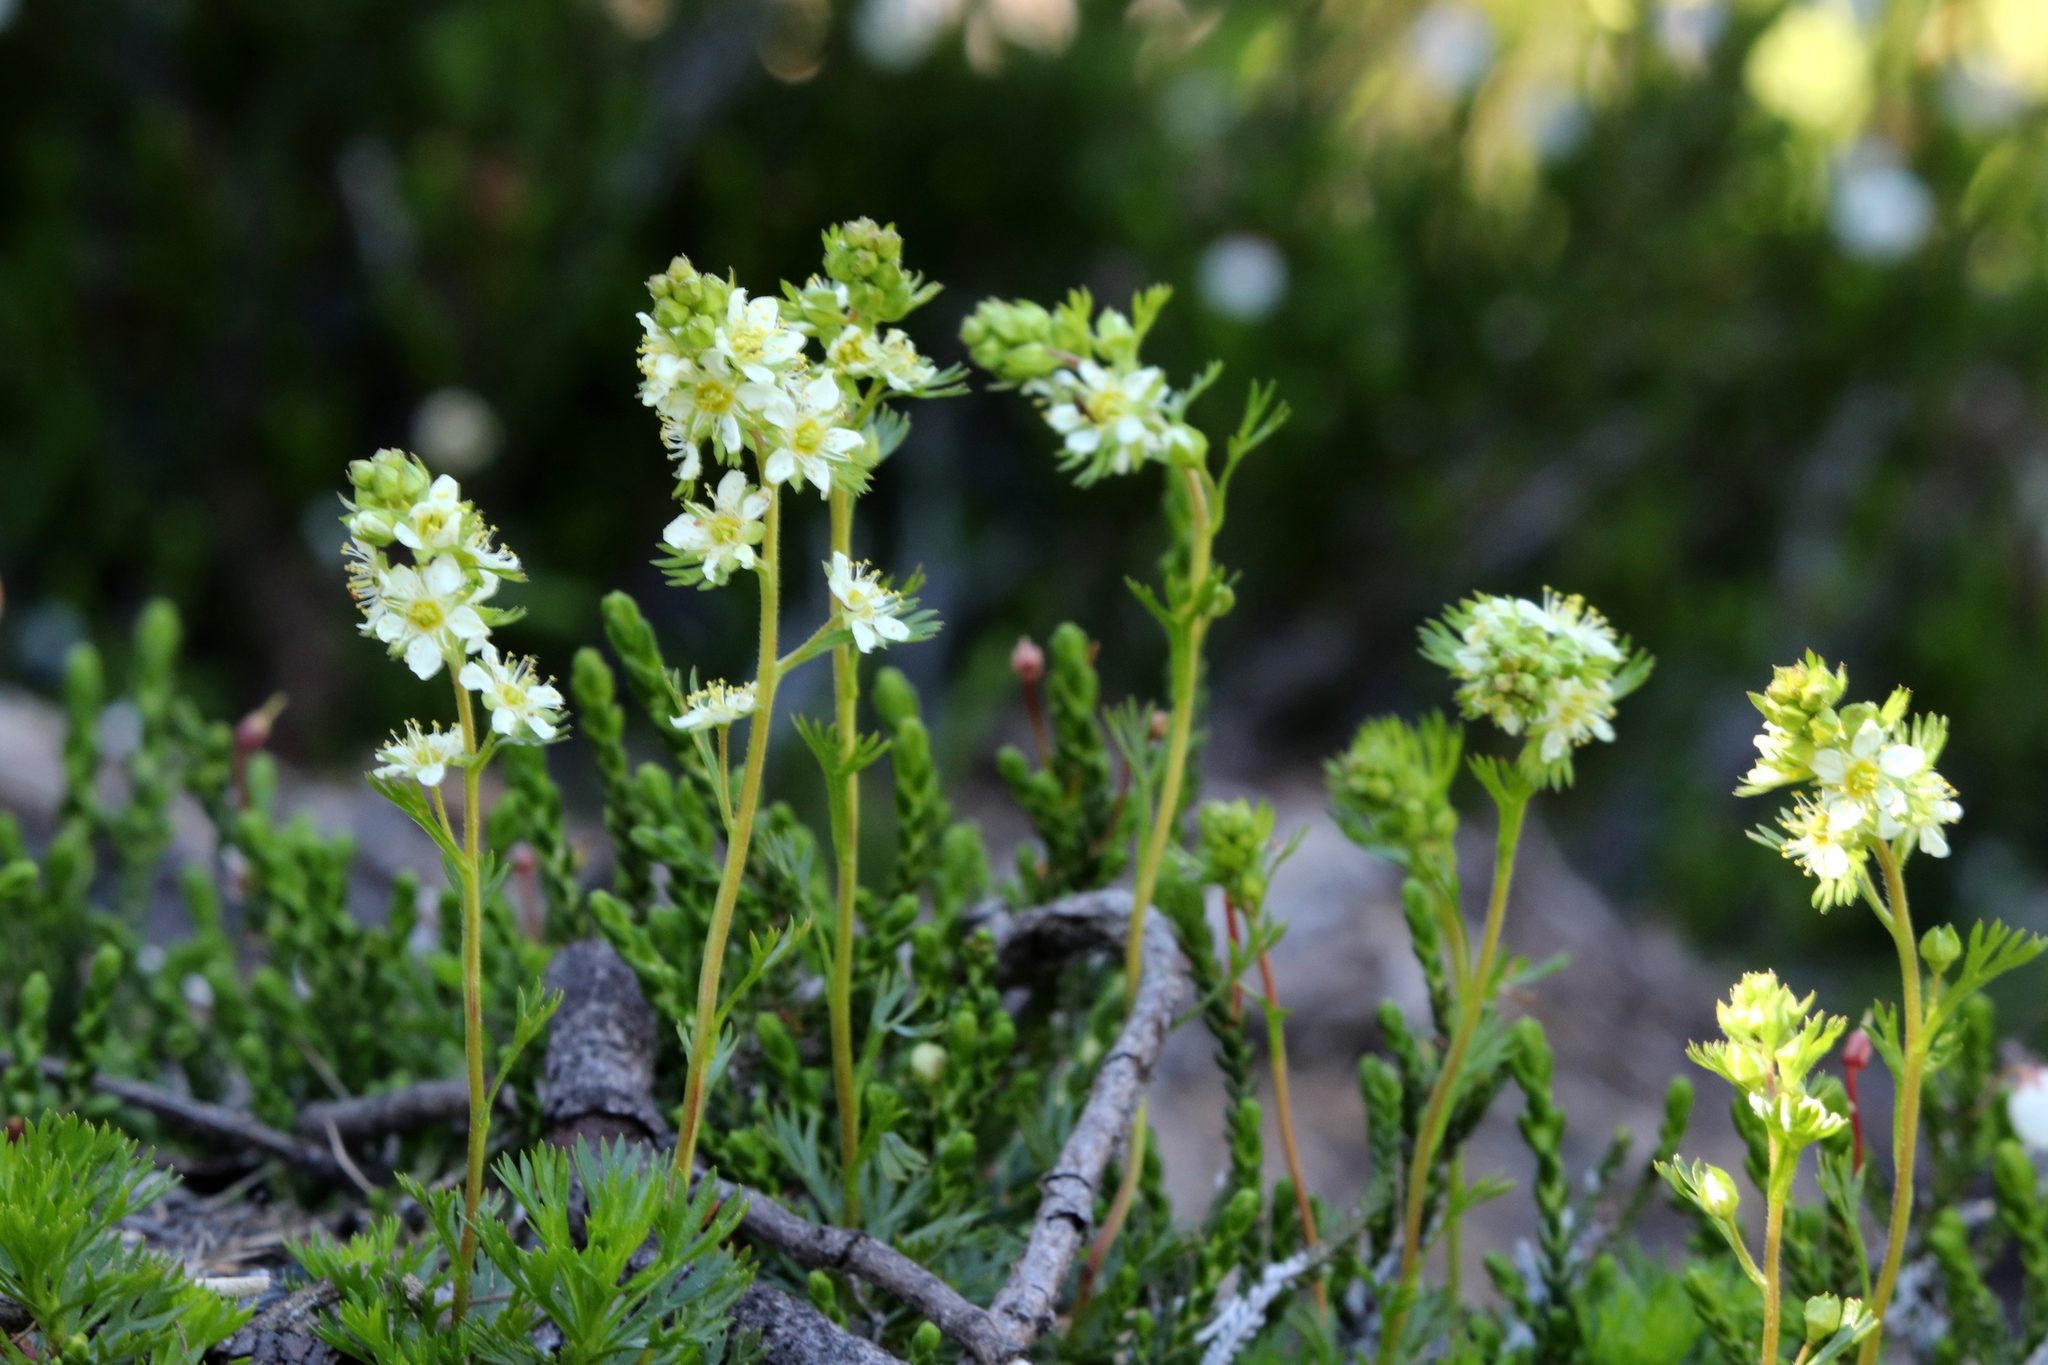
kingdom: Plantae
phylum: Tracheophyta
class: Magnoliopsida
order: Rosales
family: Rosaceae
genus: Luetkea
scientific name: Luetkea pectinata
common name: Partridgefoot
